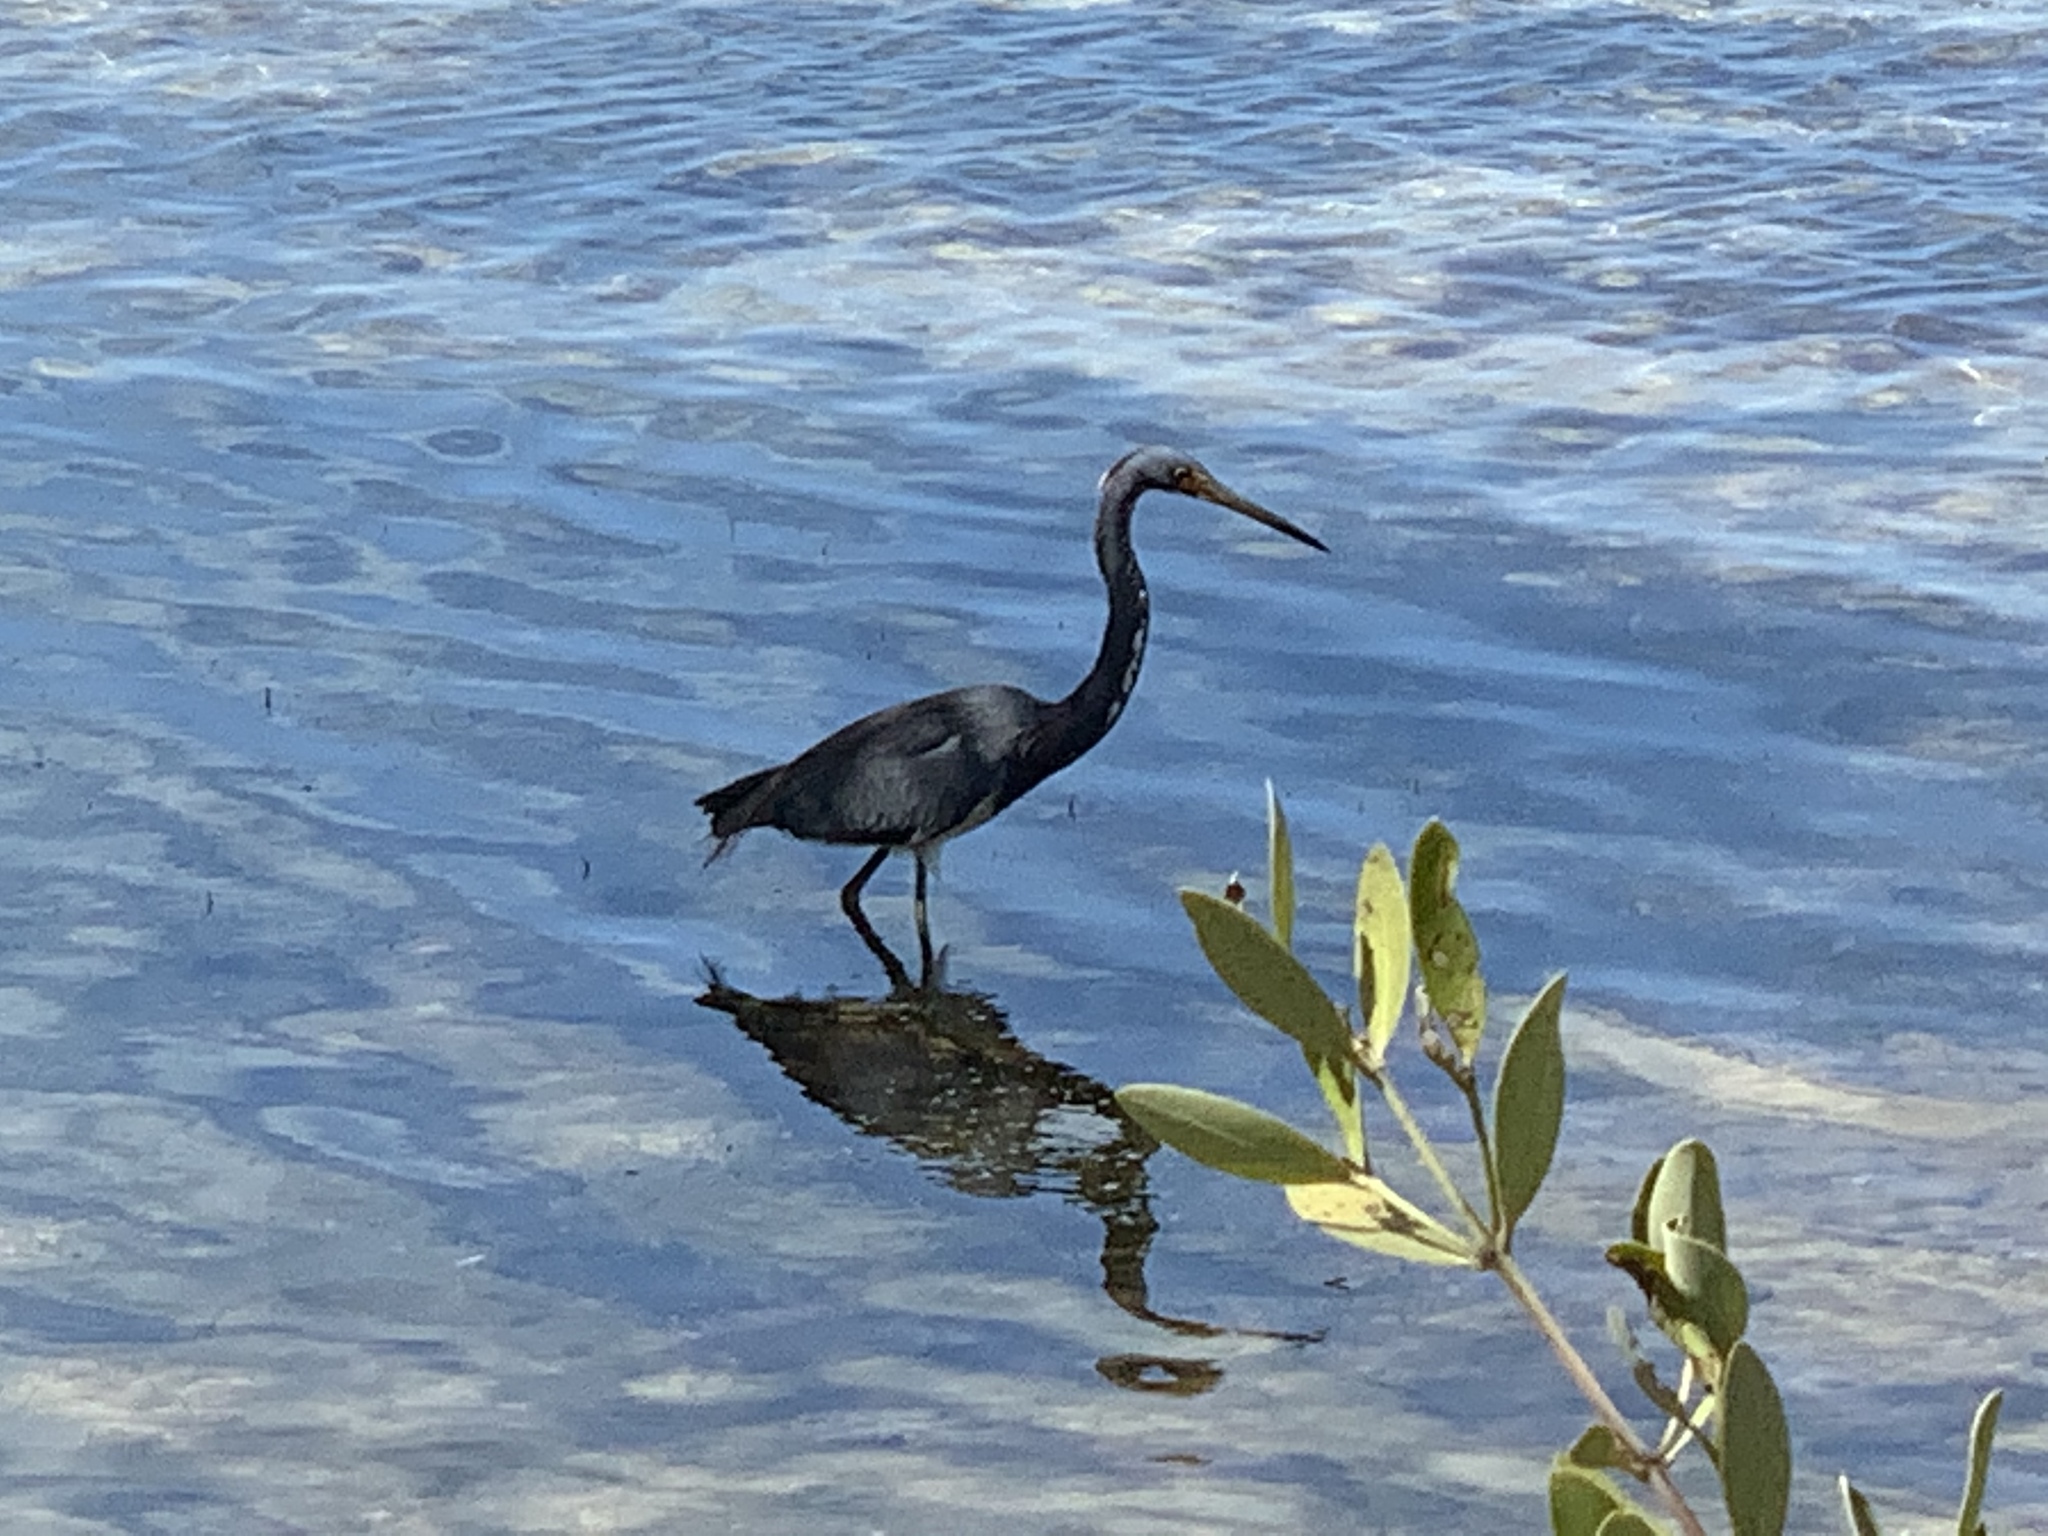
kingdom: Animalia
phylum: Chordata
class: Aves
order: Pelecaniformes
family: Ardeidae
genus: Egretta
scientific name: Egretta tricolor
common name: Tricolored heron
